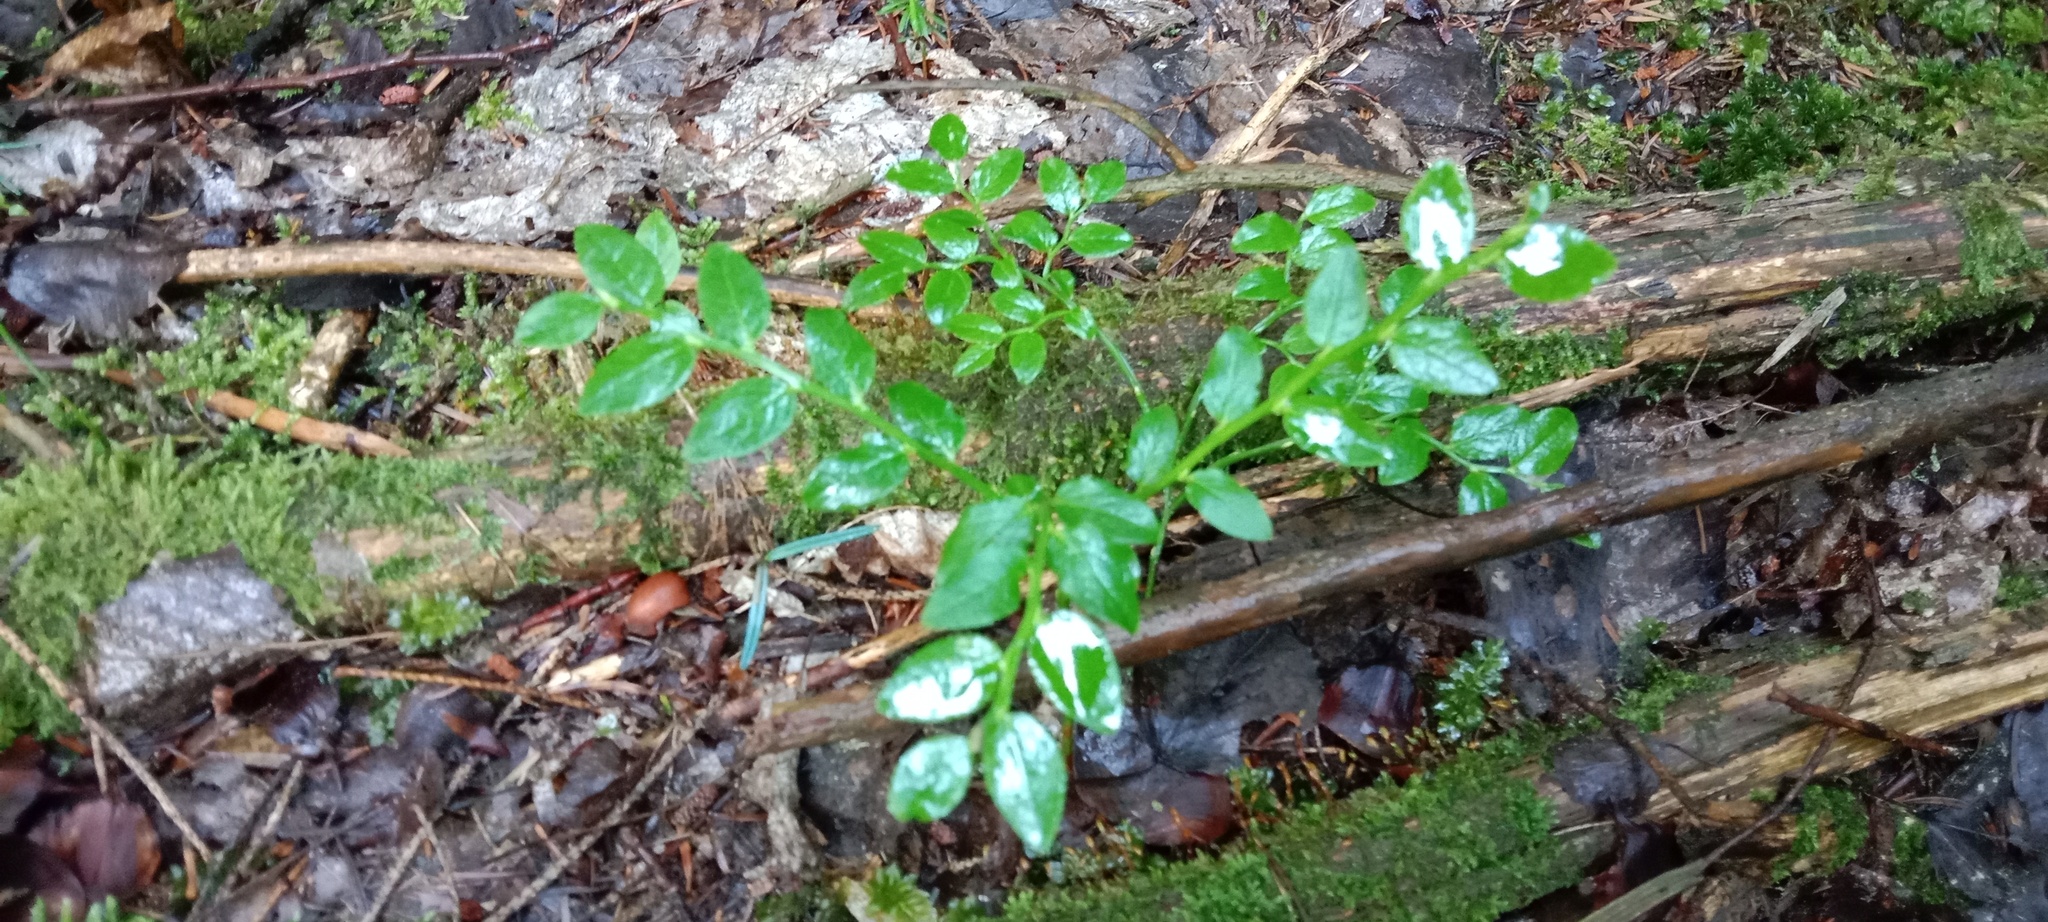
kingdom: Plantae
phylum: Tracheophyta
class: Magnoliopsida
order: Ericales
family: Ericaceae
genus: Vaccinium
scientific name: Vaccinium myrtillus
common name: Bilberry
